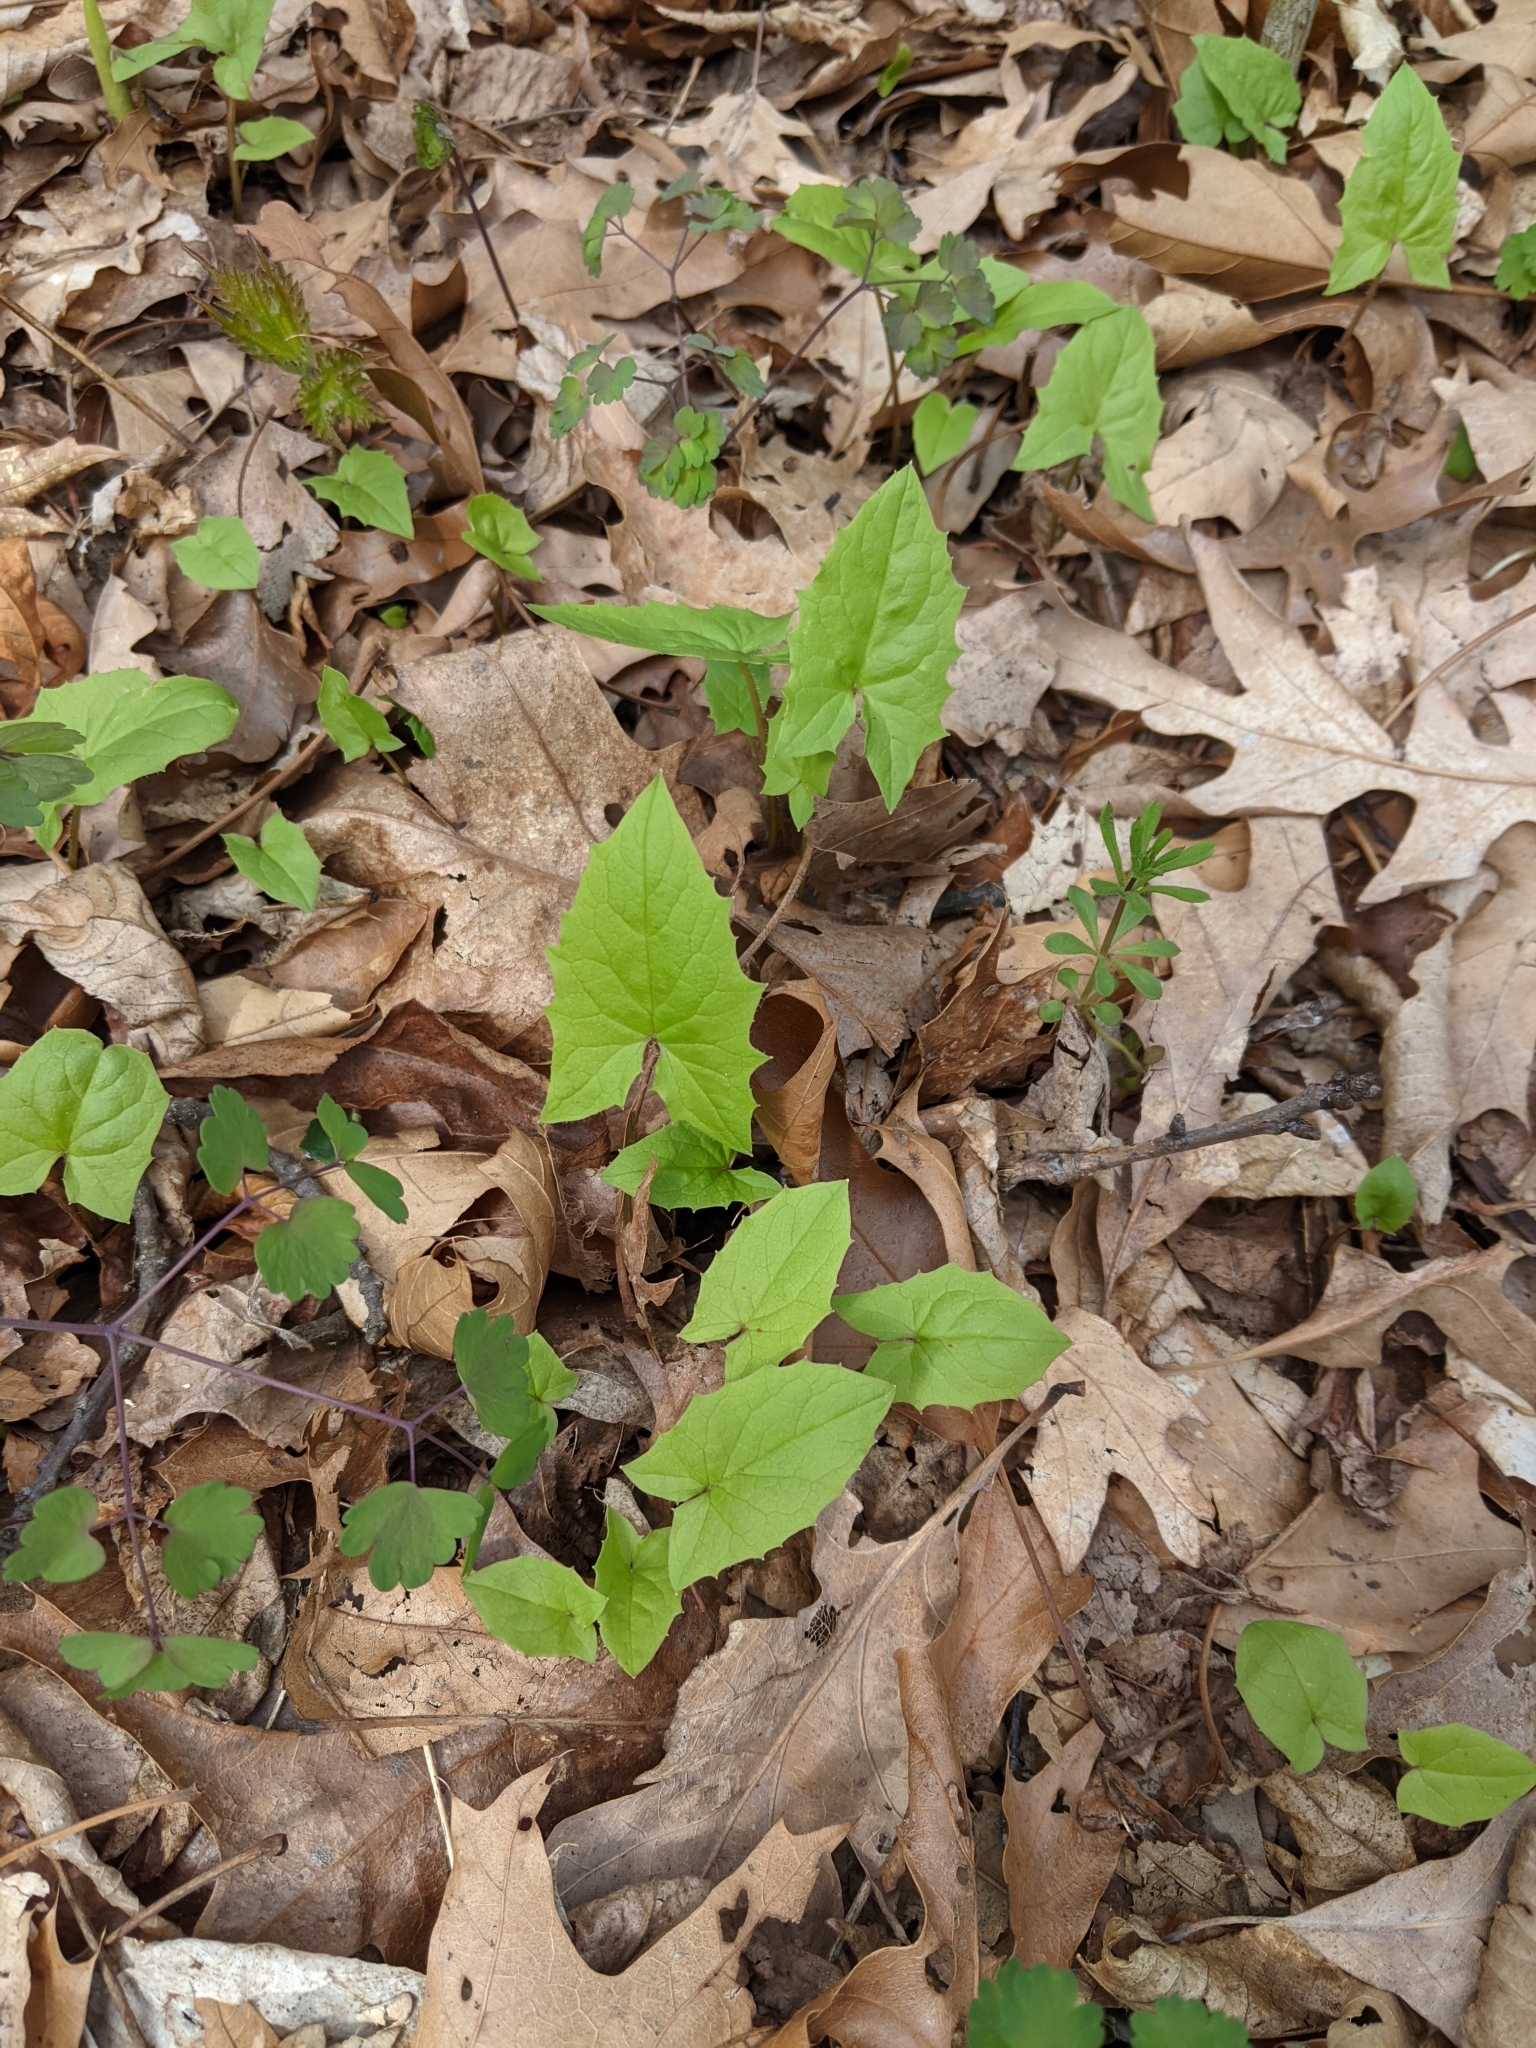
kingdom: Plantae
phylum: Tracheophyta
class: Magnoliopsida
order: Asterales
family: Asteraceae
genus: Nabalus
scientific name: Nabalus albus
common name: White rattlesnakeroot
